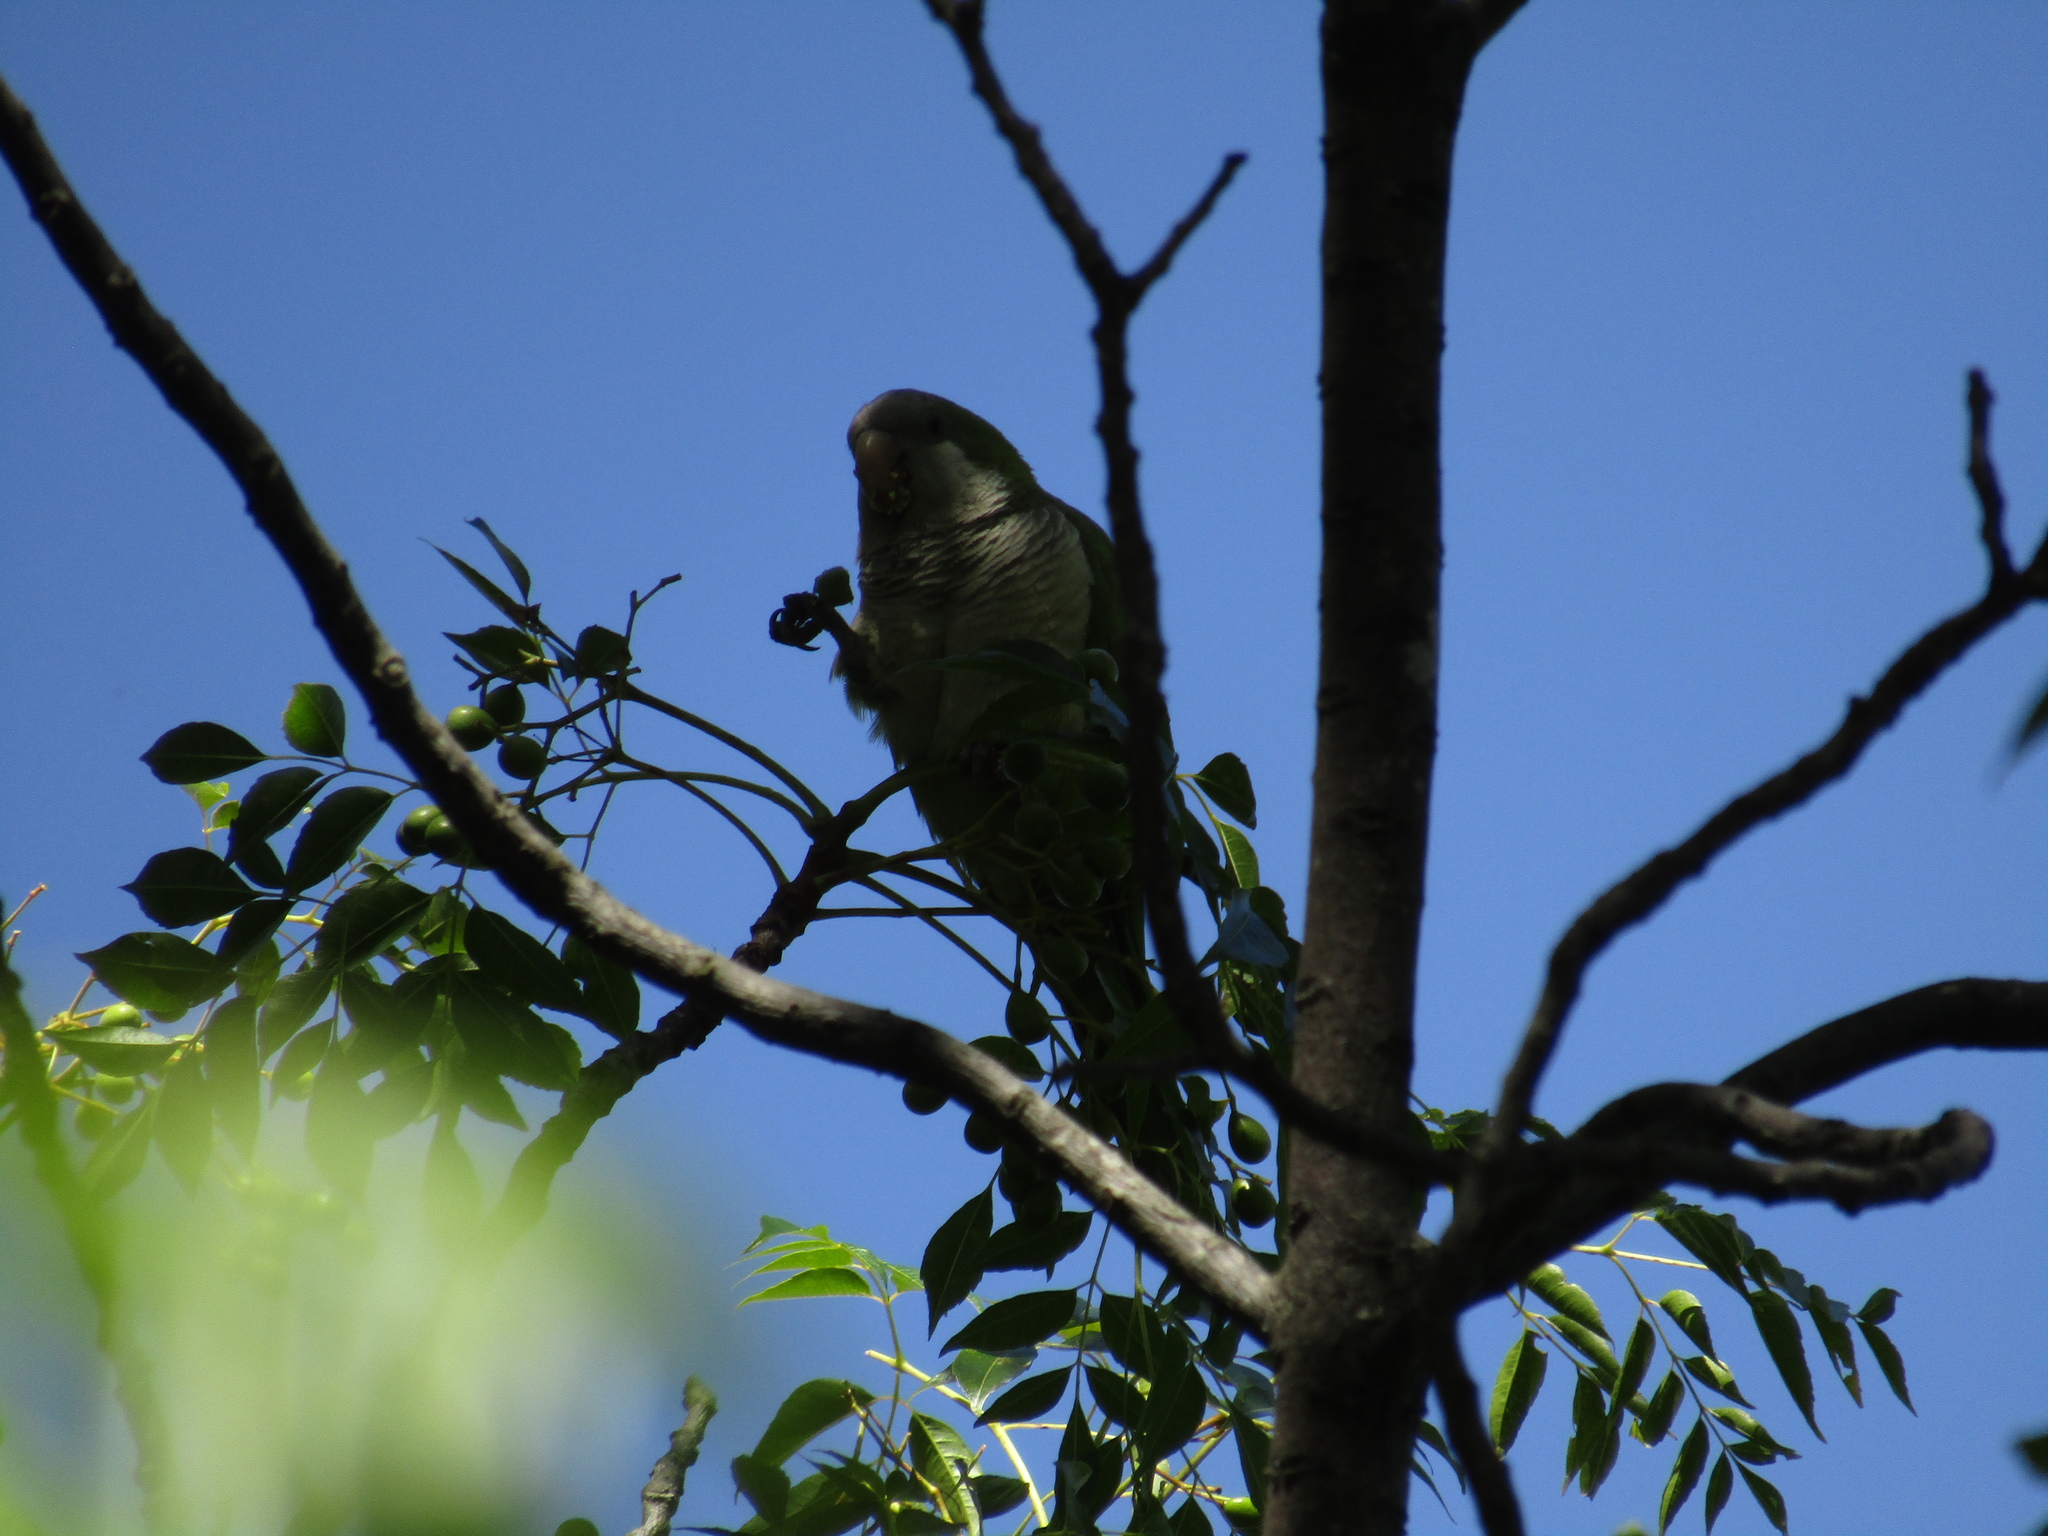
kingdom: Animalia
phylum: Chordata
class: Aves
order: Psittaciformes
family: Psittacidae
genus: Myiopsitta
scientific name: Myiopsitta monachus
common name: Monk parakeet
